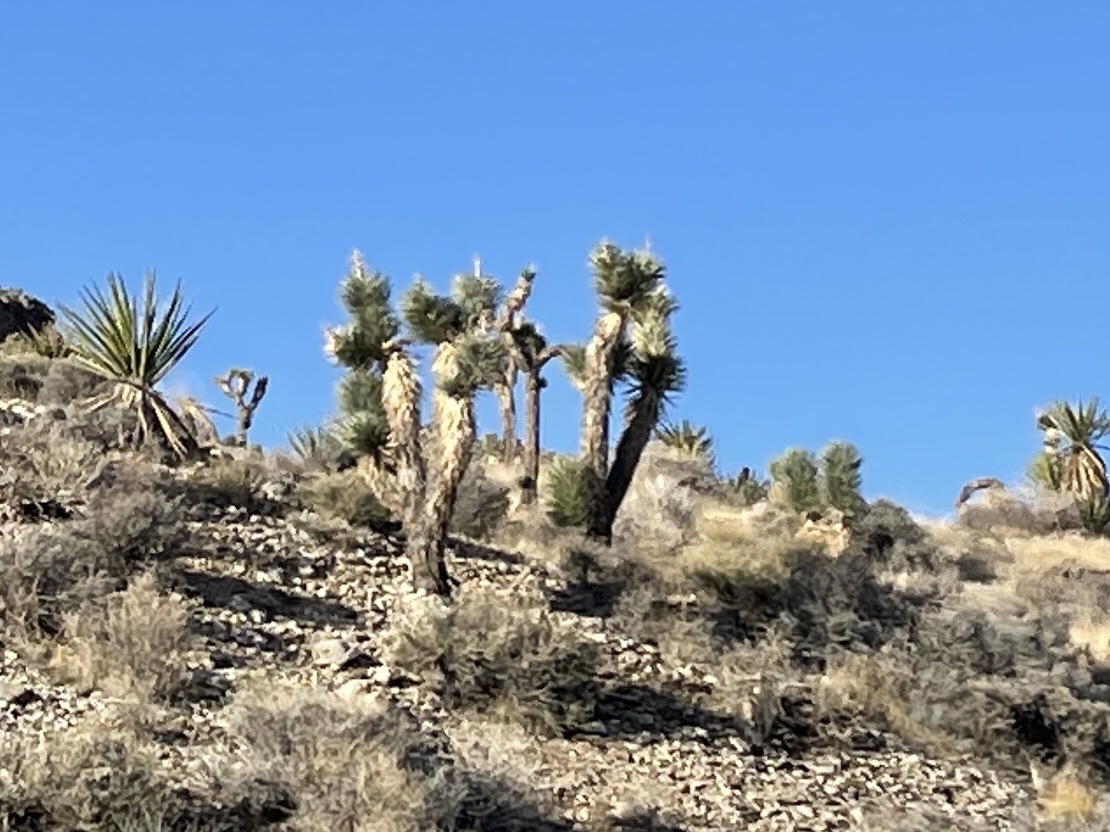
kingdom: Plantae
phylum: Tracheophyta
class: Liliopsida
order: Asparagales
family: Asparagaceae
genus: Yucca
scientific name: Yucca brevifolia
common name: Joshua tree
